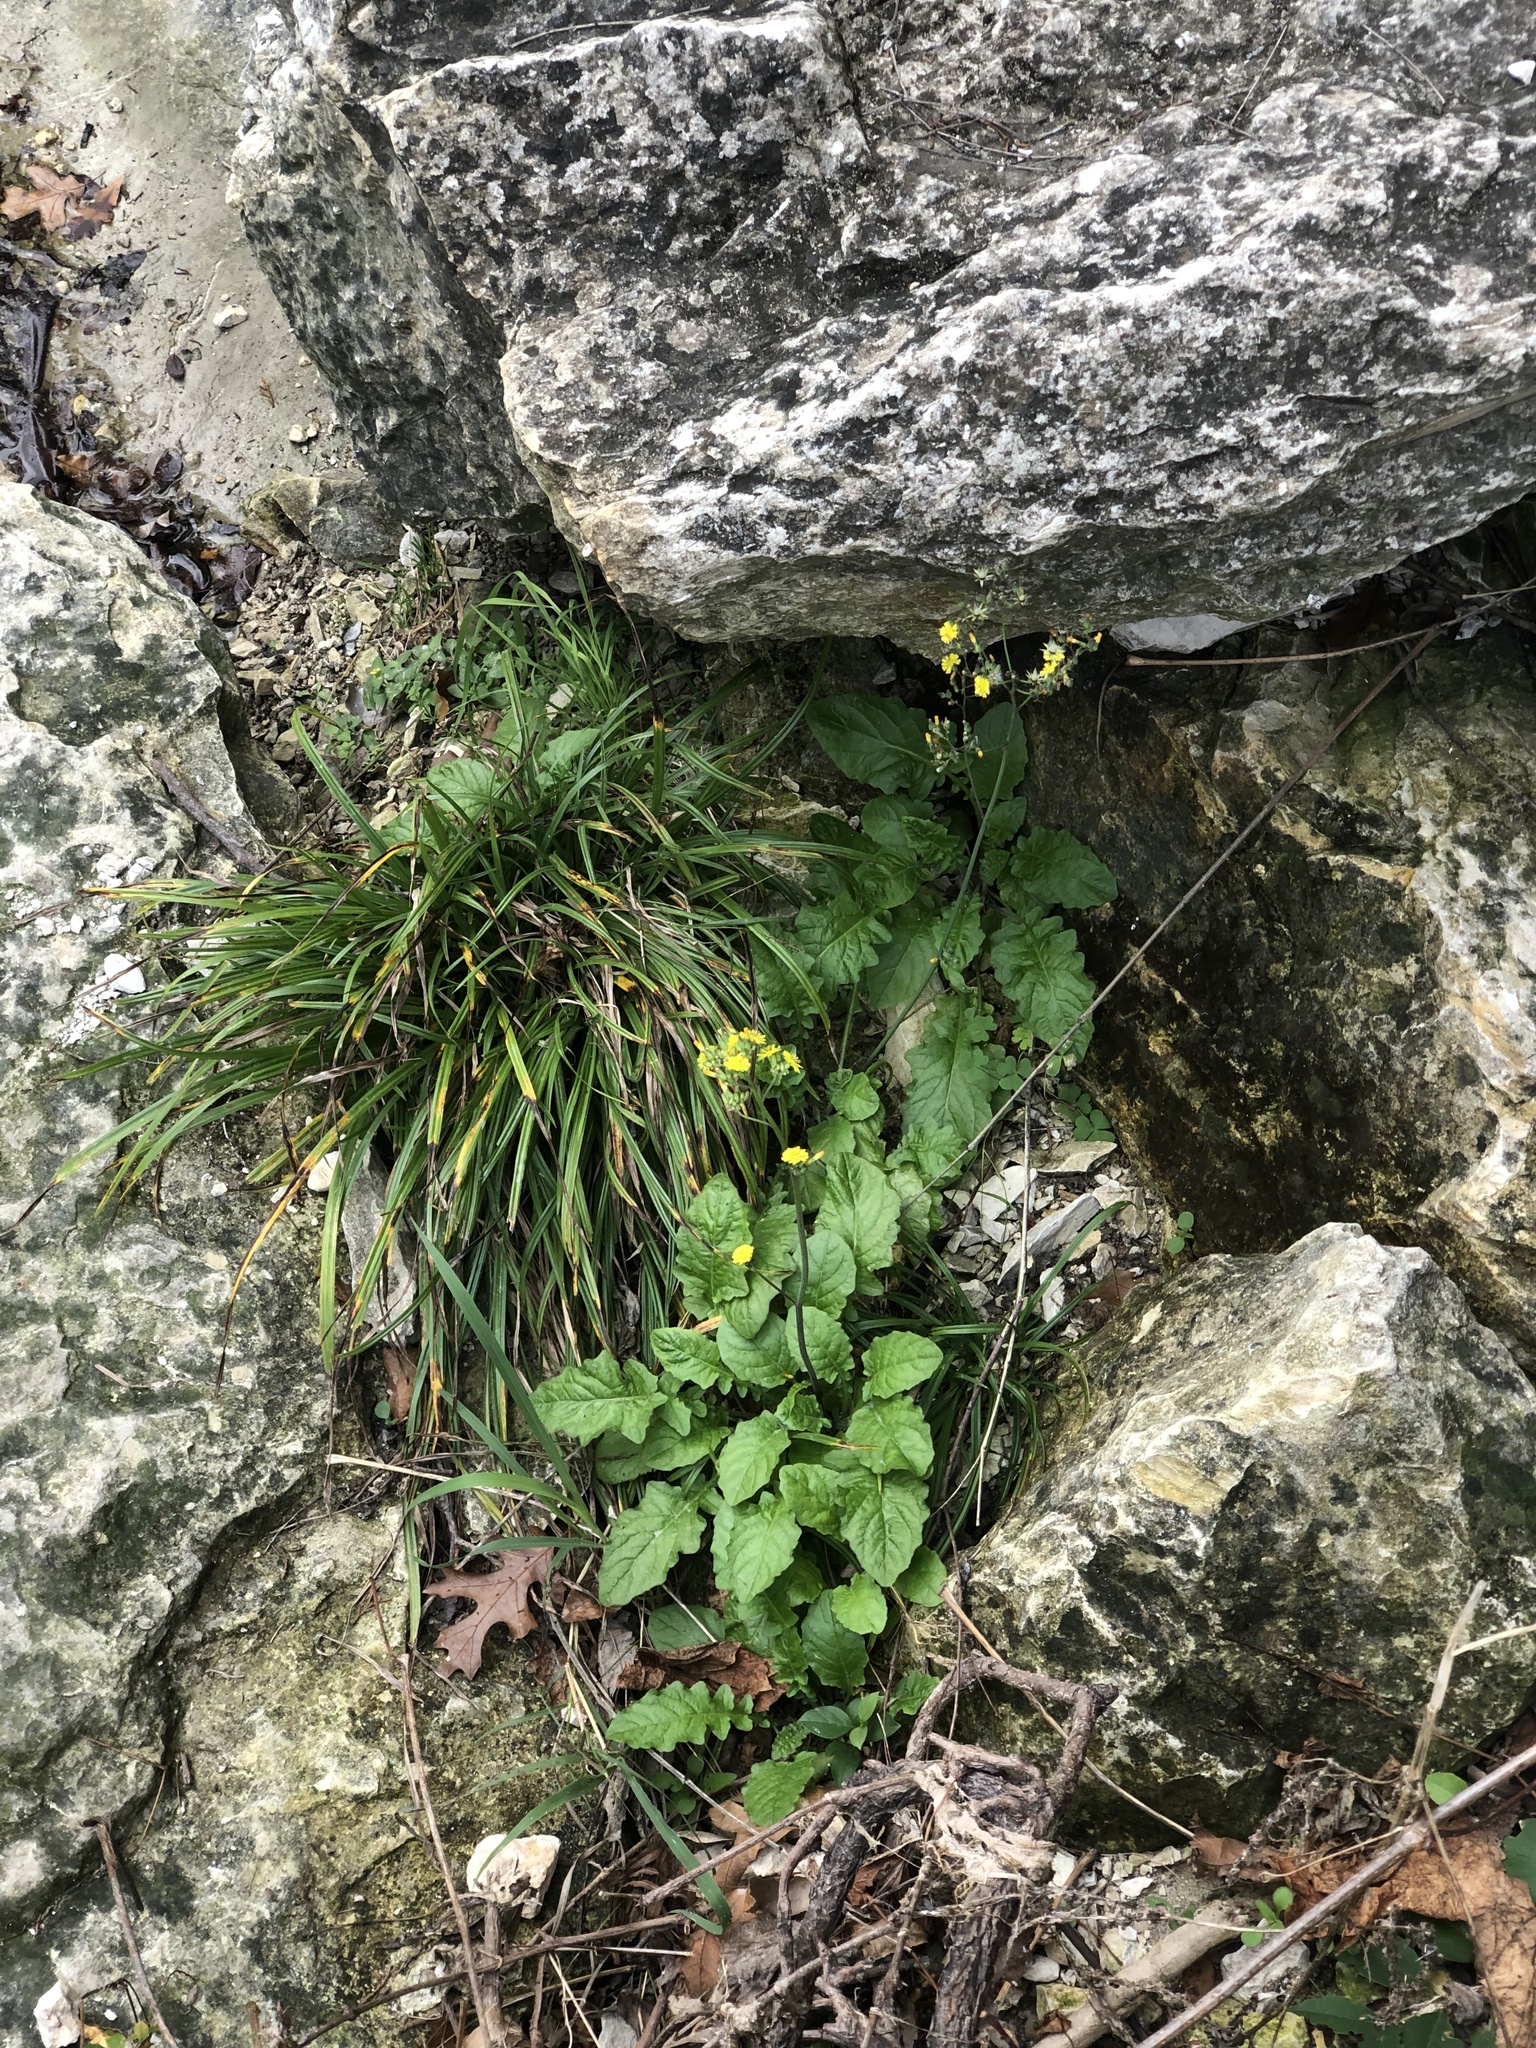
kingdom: Plantae
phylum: Tracheophyta
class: Magnoliopsida
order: Asterales
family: Asteraceae
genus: Youngia
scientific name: Youngia japonica
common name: Oriental false hawksbeard
